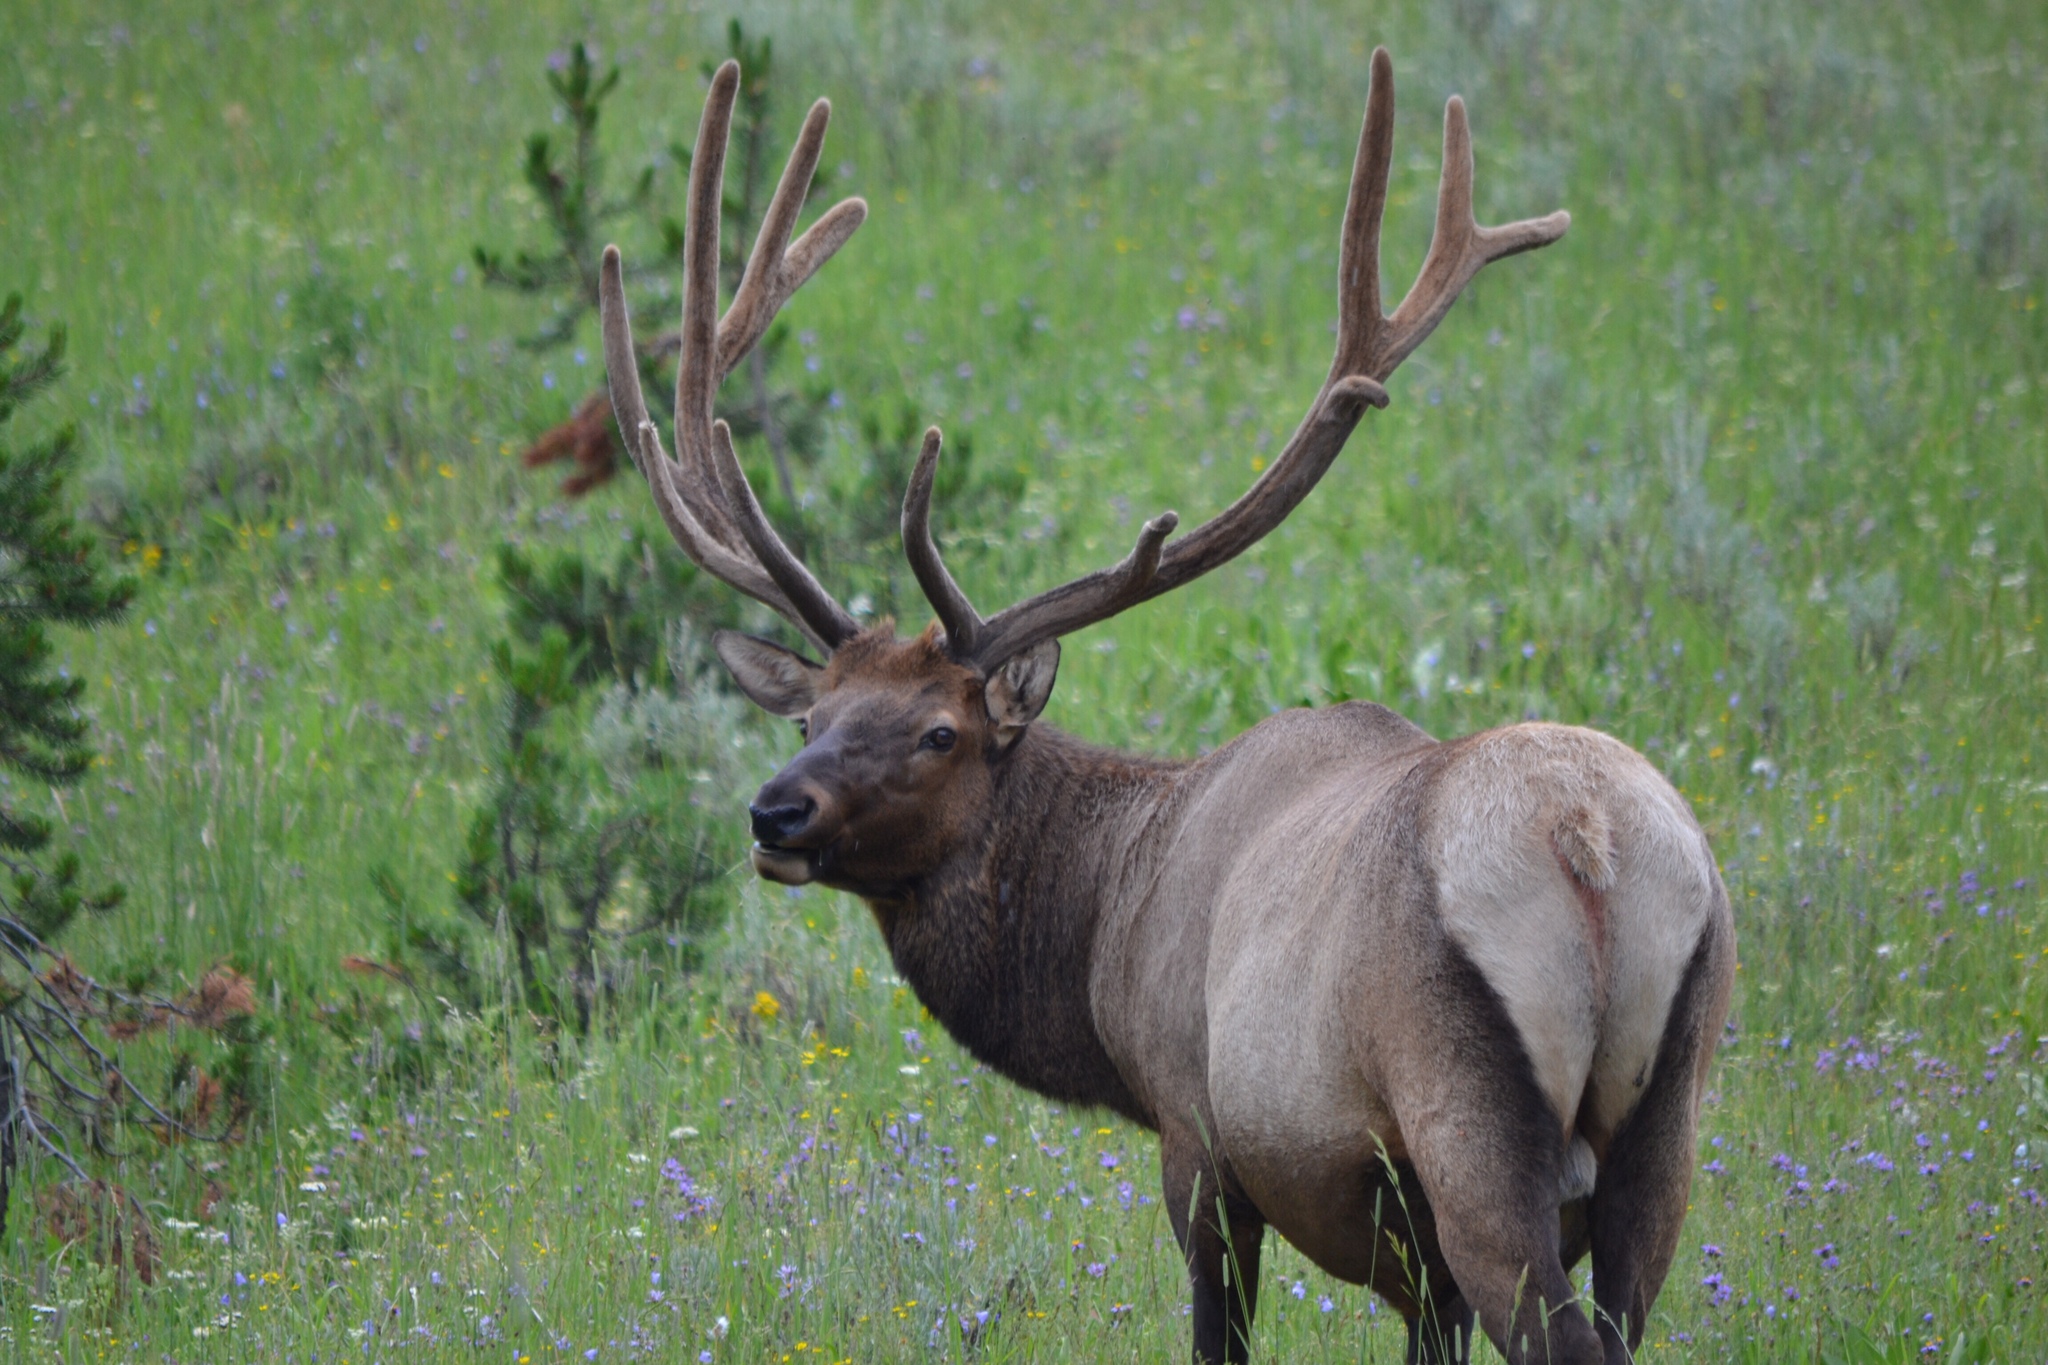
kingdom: Animalia
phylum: Chordata
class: Mammalia
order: Artiodactyla
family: Cervidae
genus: Cervus
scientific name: Cervus elaphus
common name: Red deer
